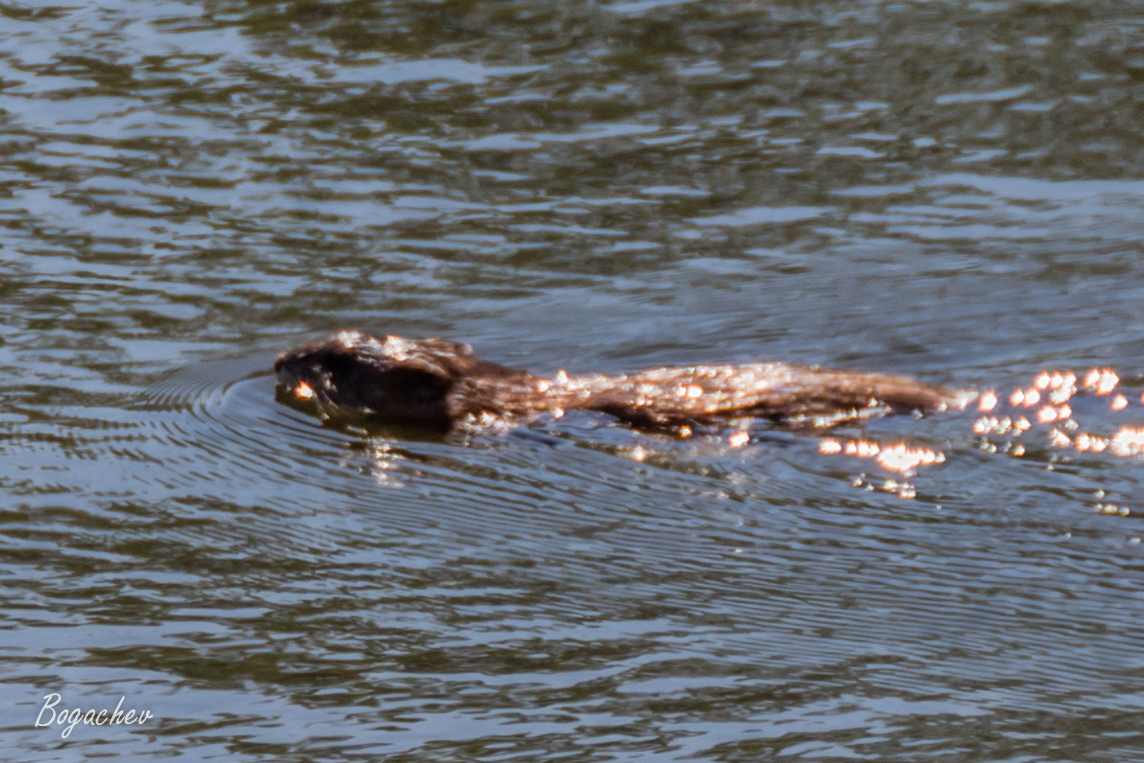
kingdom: Animalia
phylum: Chordata
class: Mammalia
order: Rodentia
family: Cricetidae
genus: Ondatra
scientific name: Ondatra zibethicus
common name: Muskrat
